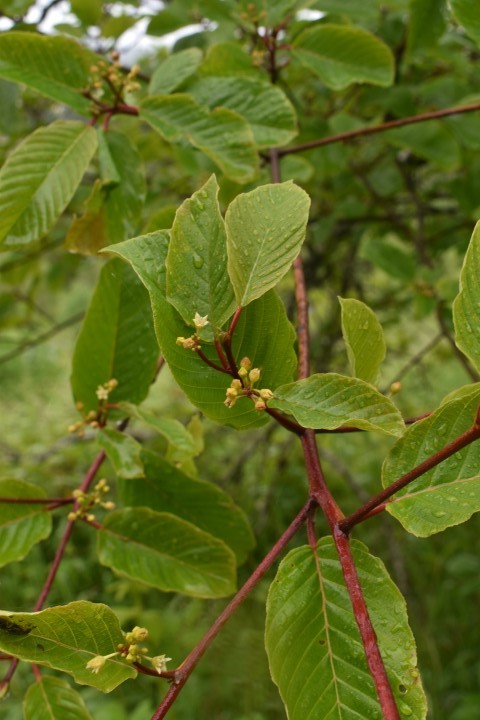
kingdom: Plantae
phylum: Tracheophyta
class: Magnoliopsida
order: Rosales
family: Rhamnaceae
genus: Frangula
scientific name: Frangula purshiana
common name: Cascara buckthorn
